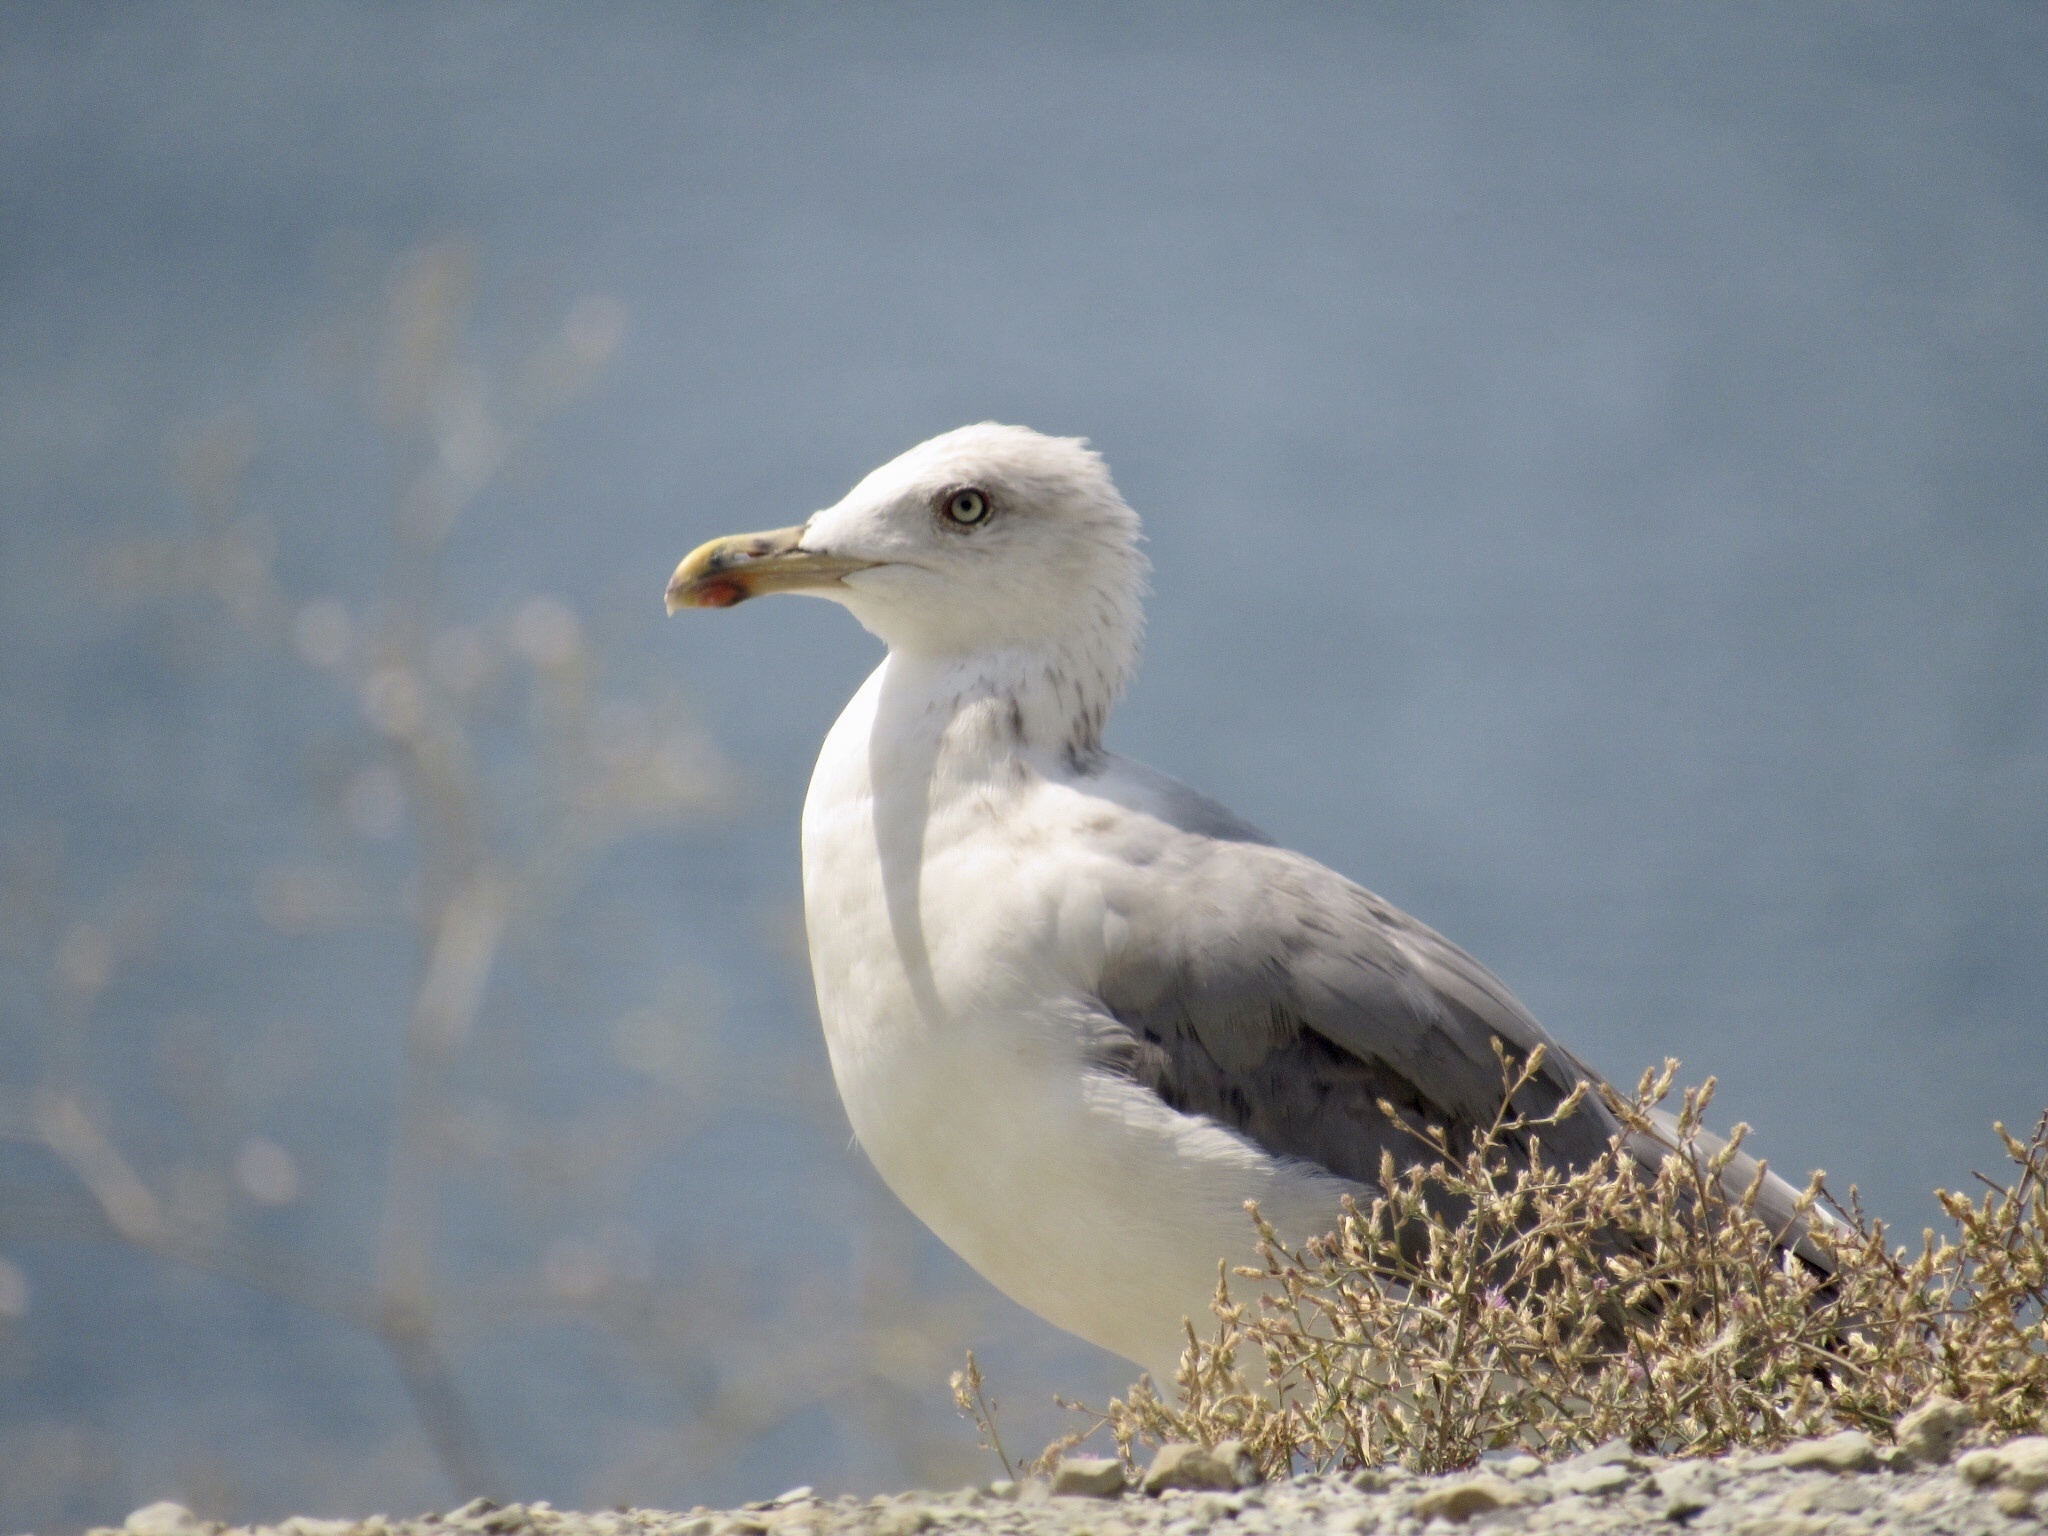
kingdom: Animalia
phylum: Chordata
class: Aves
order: Charadriiformes
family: Laridae
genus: Larus
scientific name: Larus michahellis
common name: Yellow-legged gull
